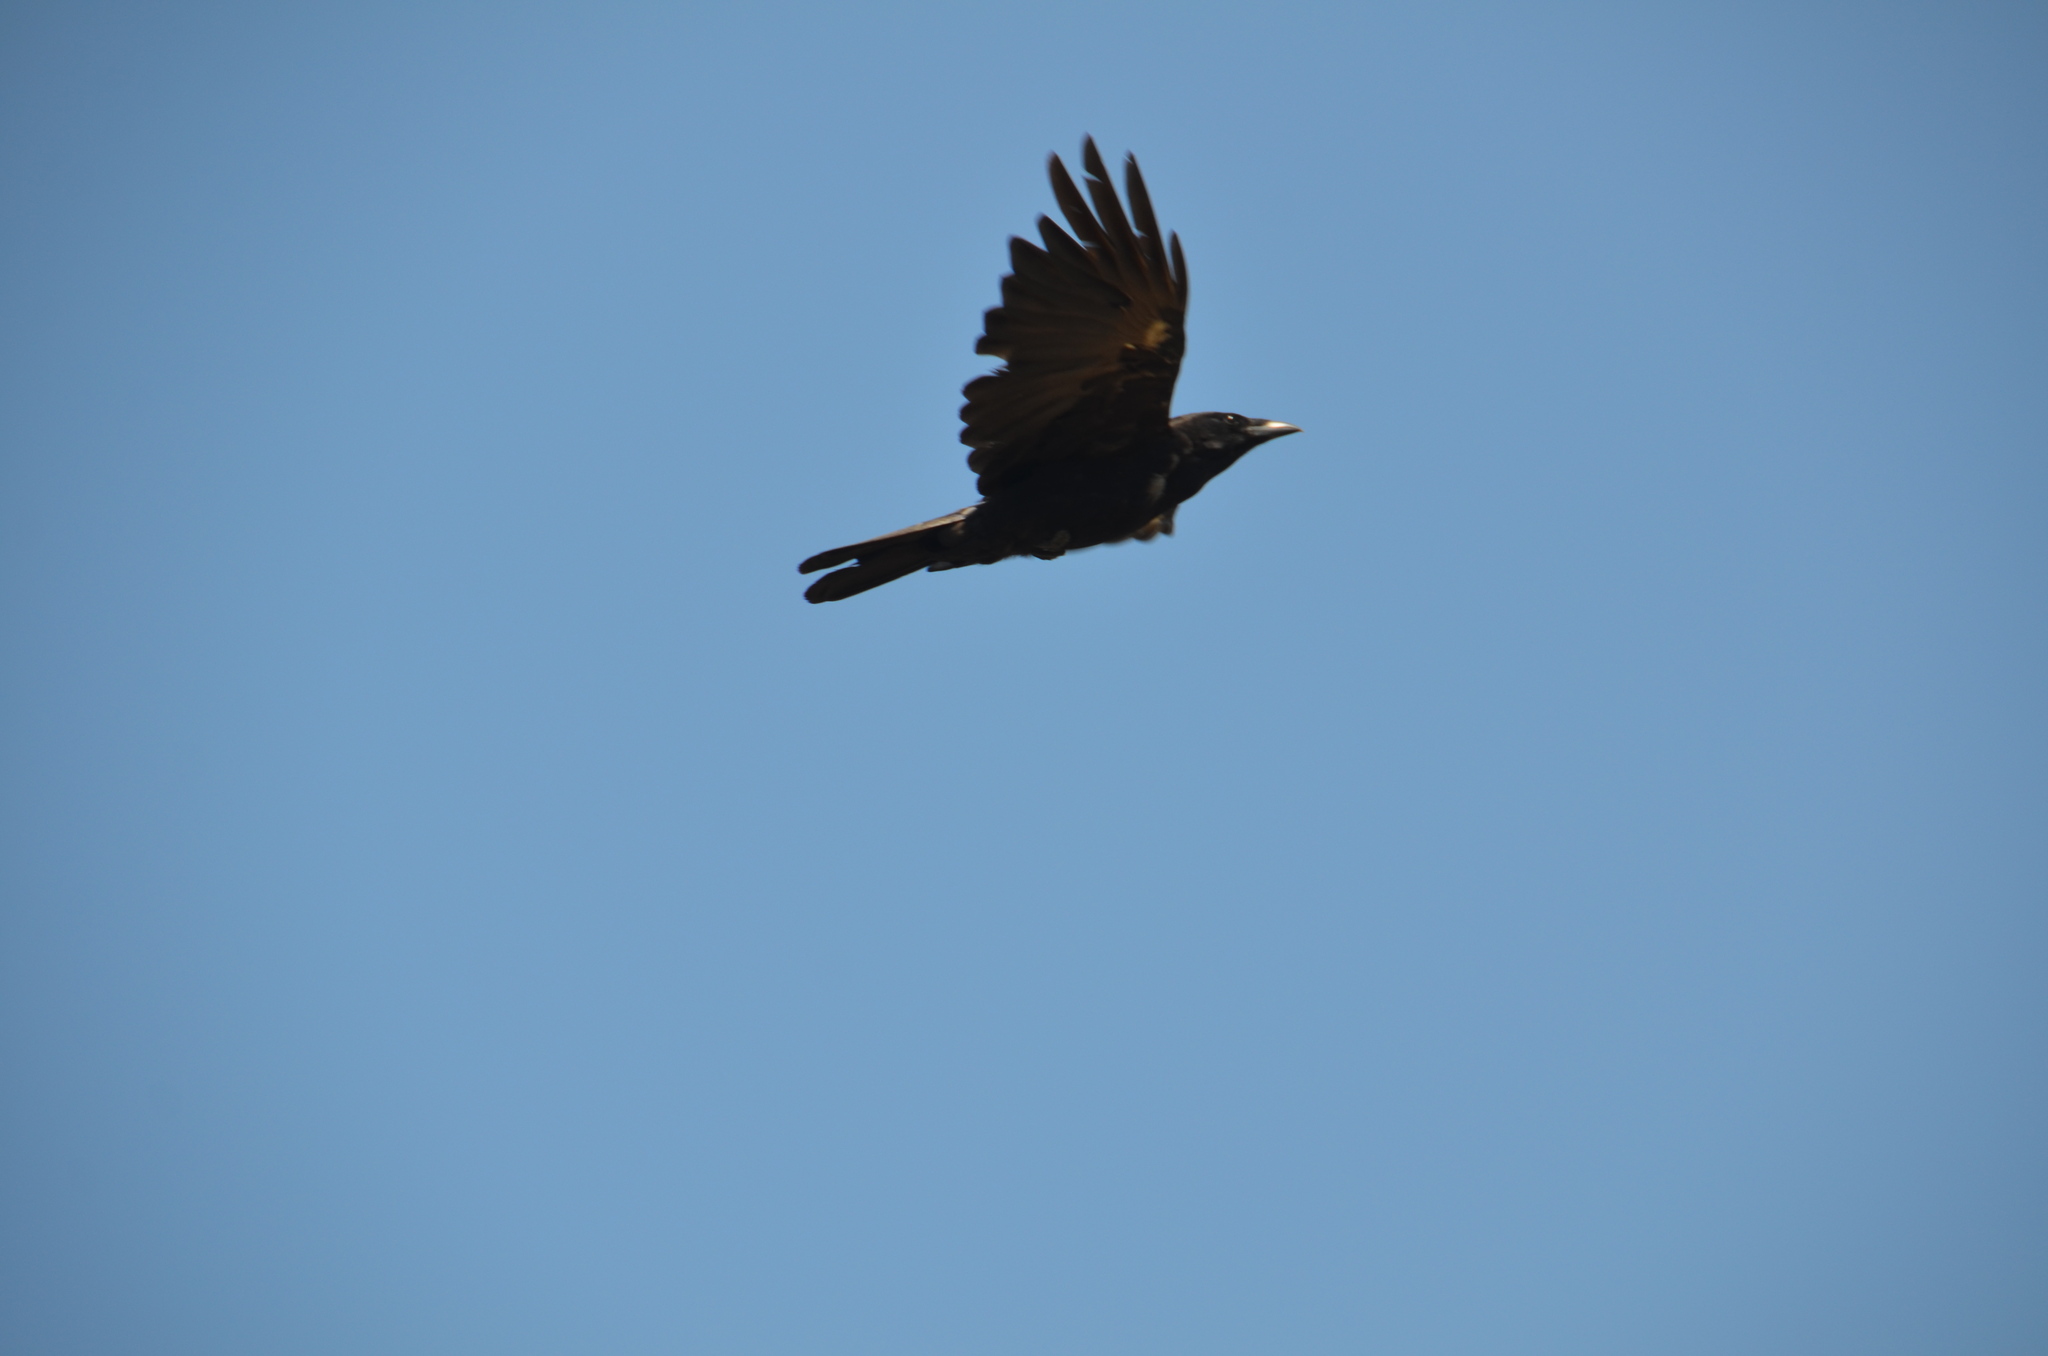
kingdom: Animalia
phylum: Chordata
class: Aves
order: Passeriformes
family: Corvidae
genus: Corvus
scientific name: Corvus brachyrhynchos
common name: American crow
